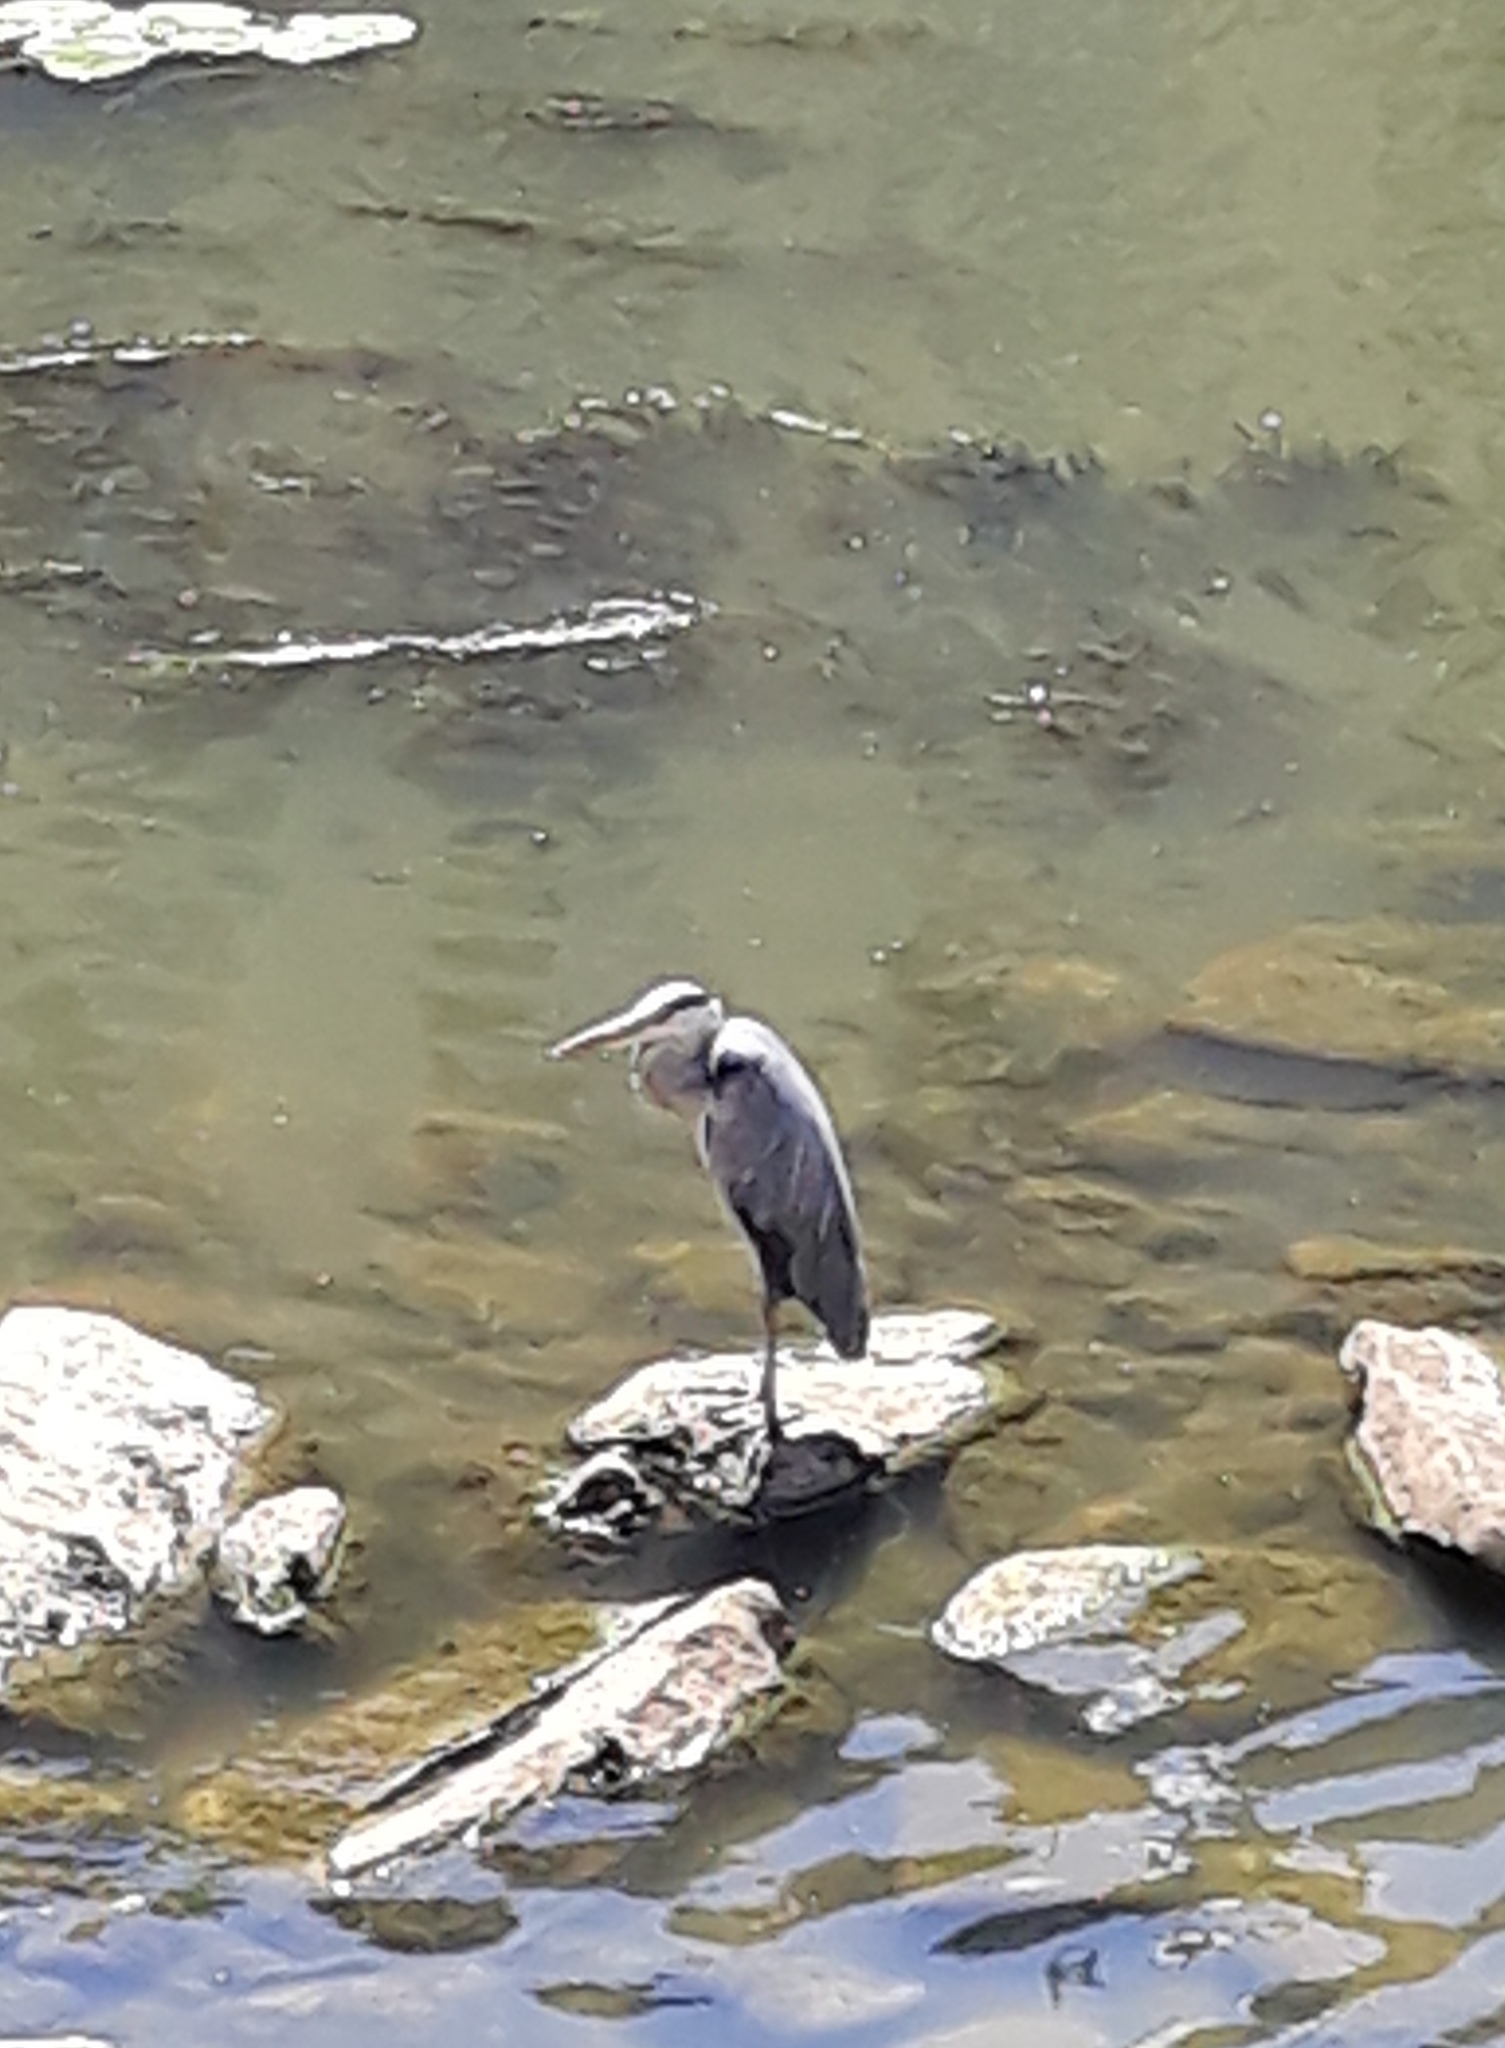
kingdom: Animalia
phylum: Chordata
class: Aves
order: Pelecaniformes
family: Ardeidae
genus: Ardea
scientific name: Ardea cinerea
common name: Grey heron
